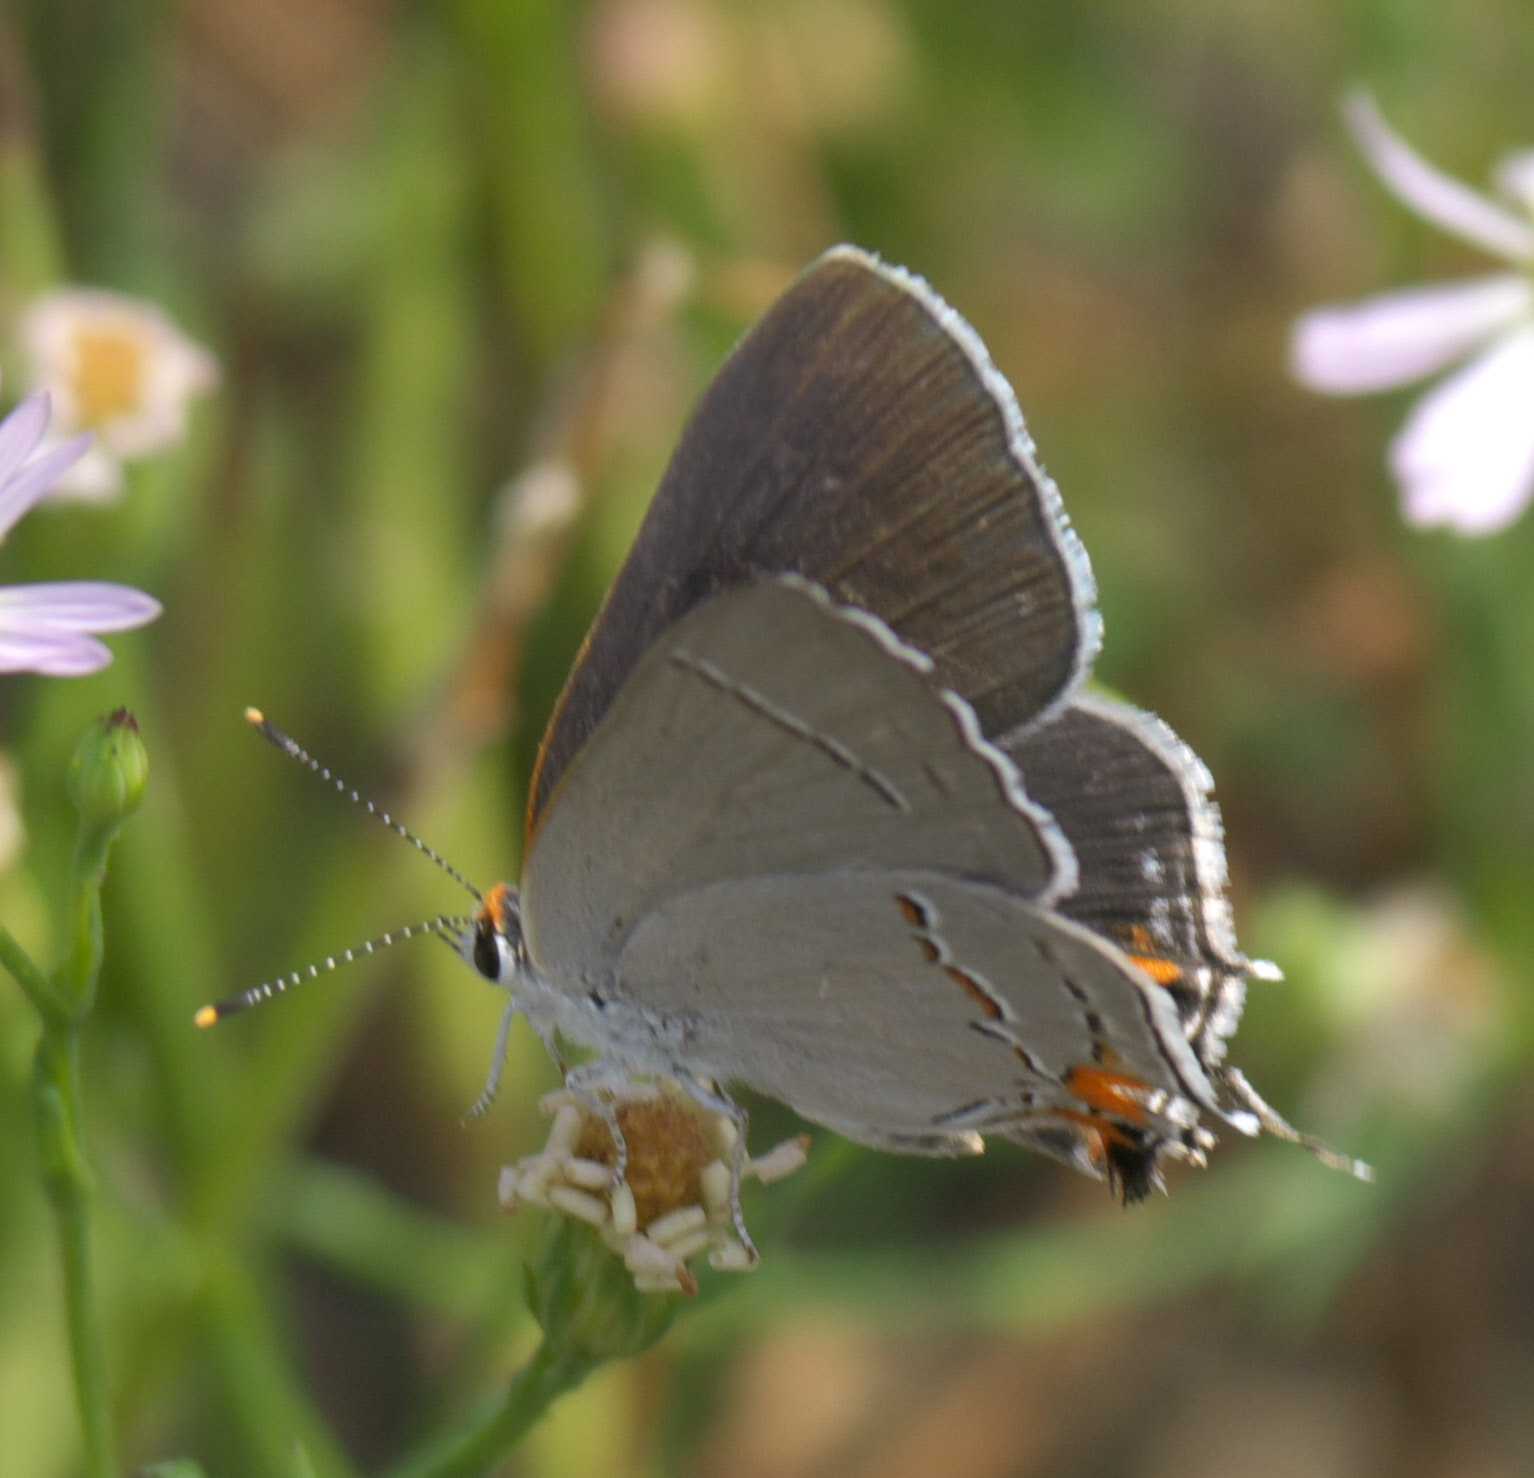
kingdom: Animalia
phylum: Arthropoda
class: Insecta
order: Lepidoptera
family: Lycaenidae
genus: Strymon
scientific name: Strymon melinus
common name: Gray hairstreak
